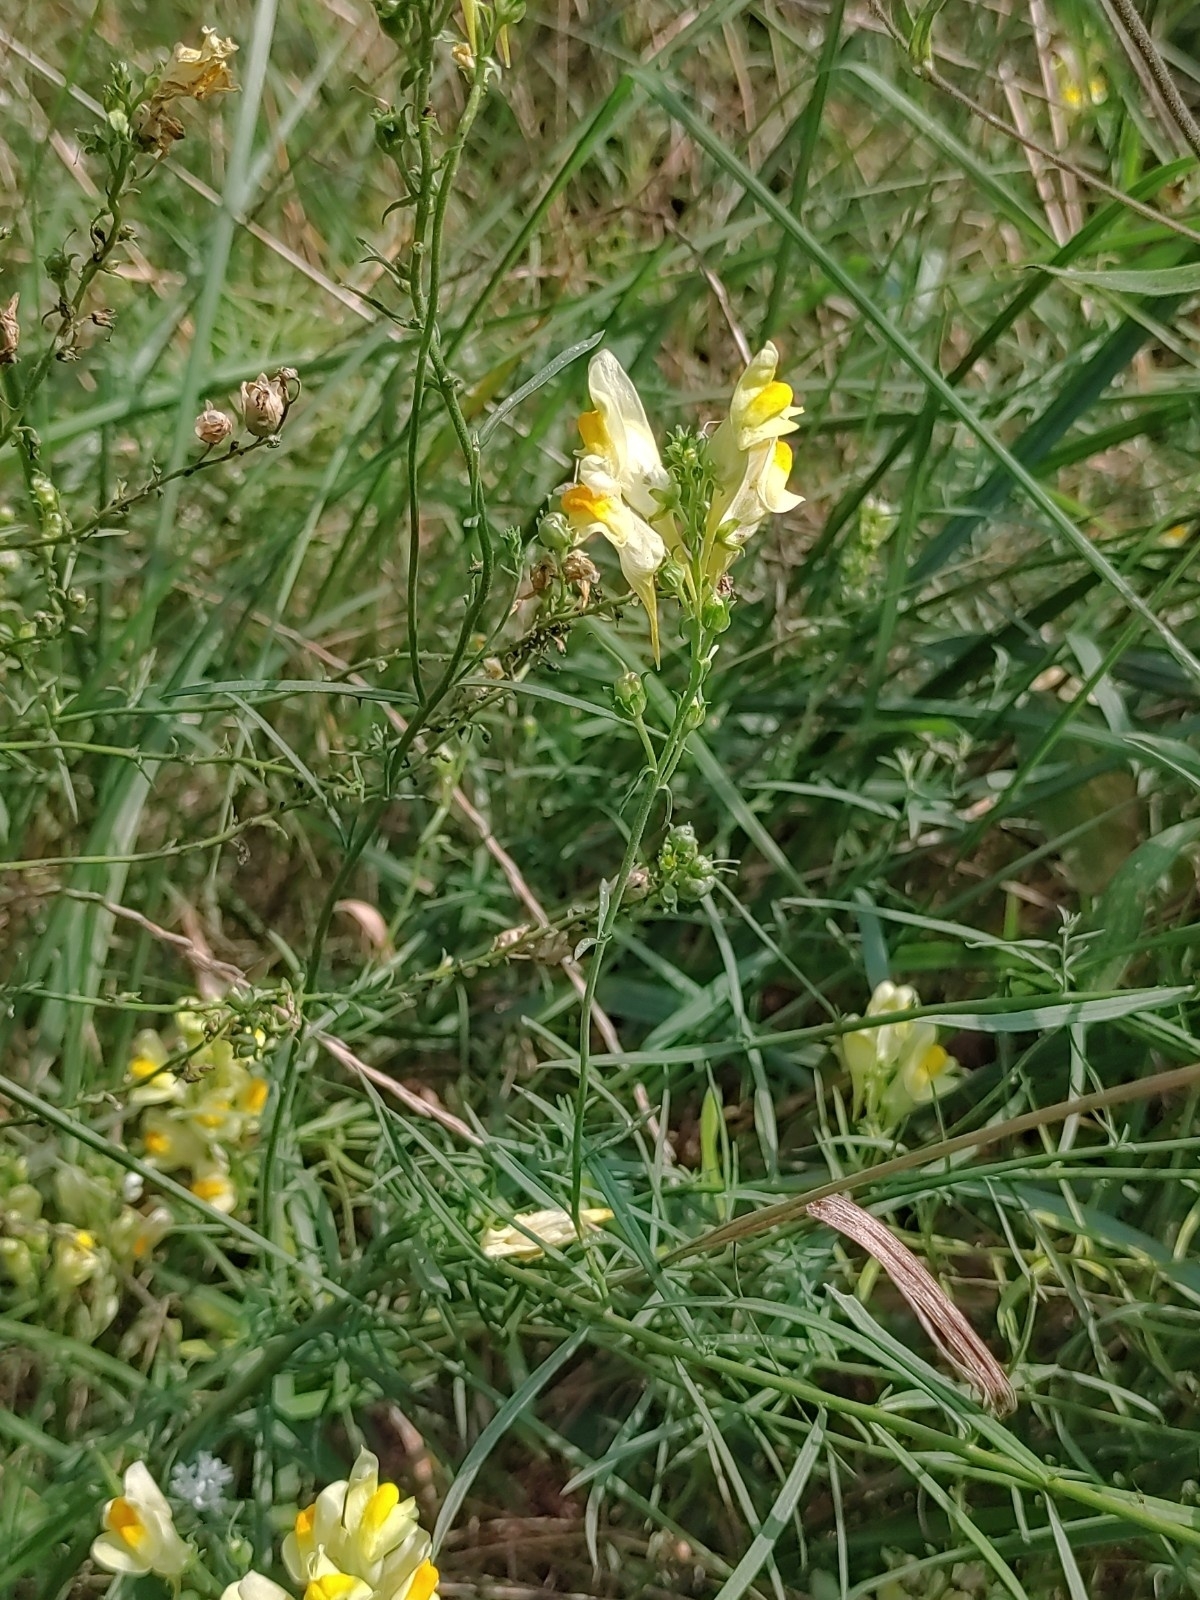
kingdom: Plantae
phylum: Tracheophyta
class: Magnoliopsida
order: Lamiales
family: Plantaginaceae
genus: Linaria
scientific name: Linaria vulgaris
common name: Butter and eggs
